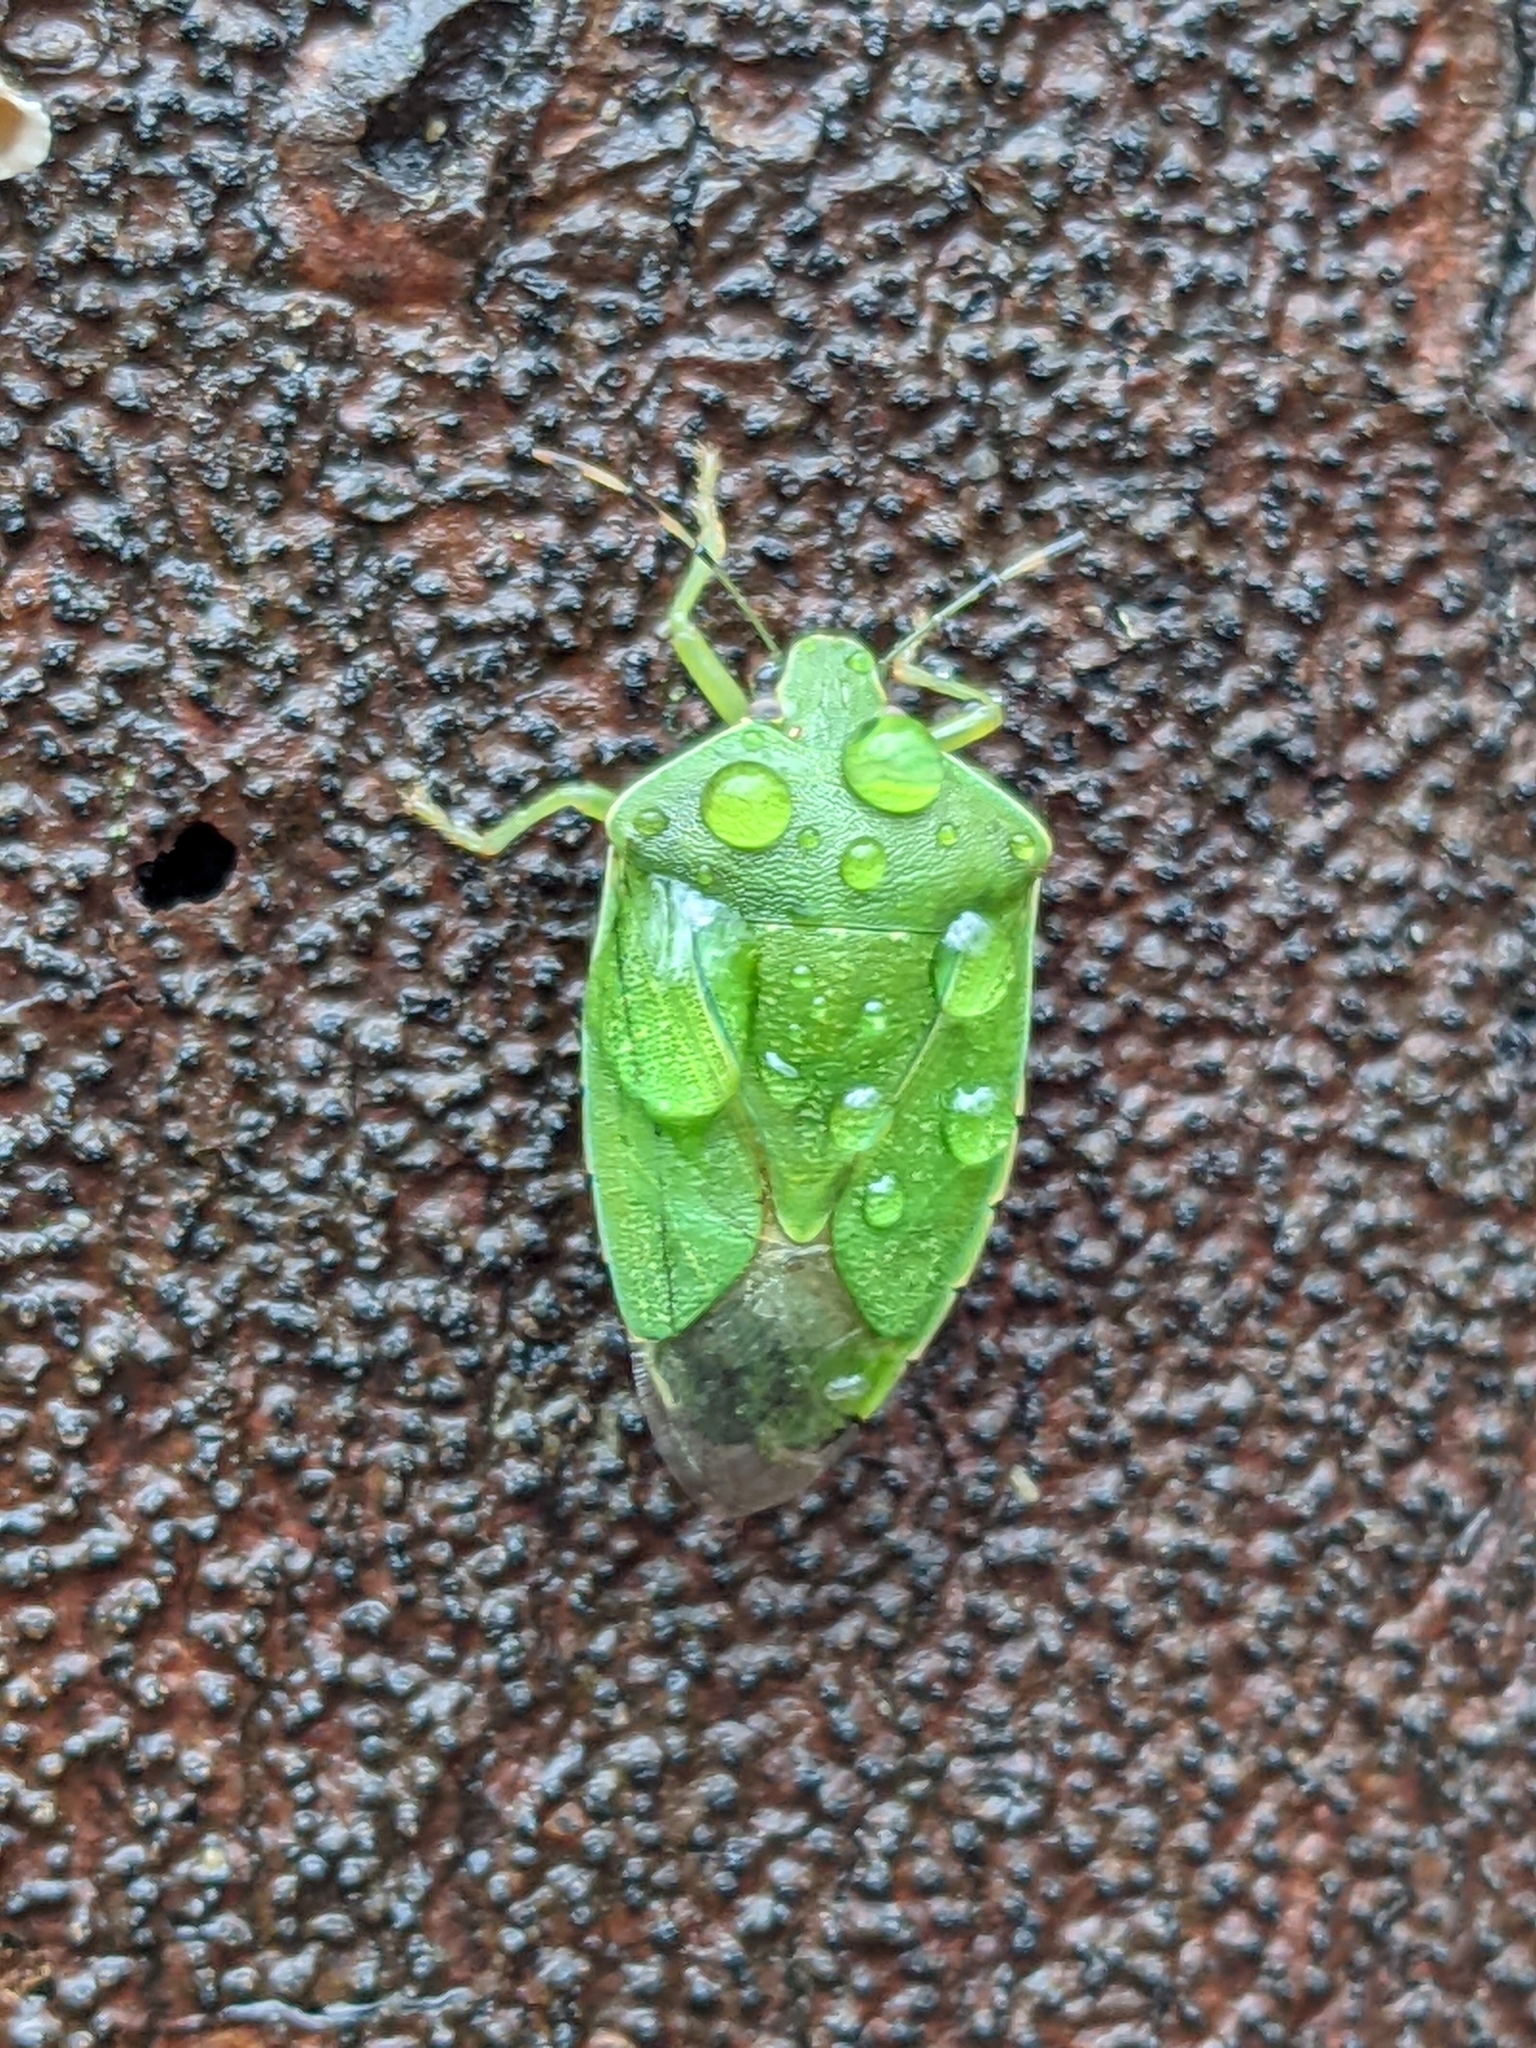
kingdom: Animalia
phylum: Arthropoda
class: Insecta
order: Hemiptera
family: Pentatomidae
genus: Chinavia
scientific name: Chinavia hilaris
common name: Green stink bug
